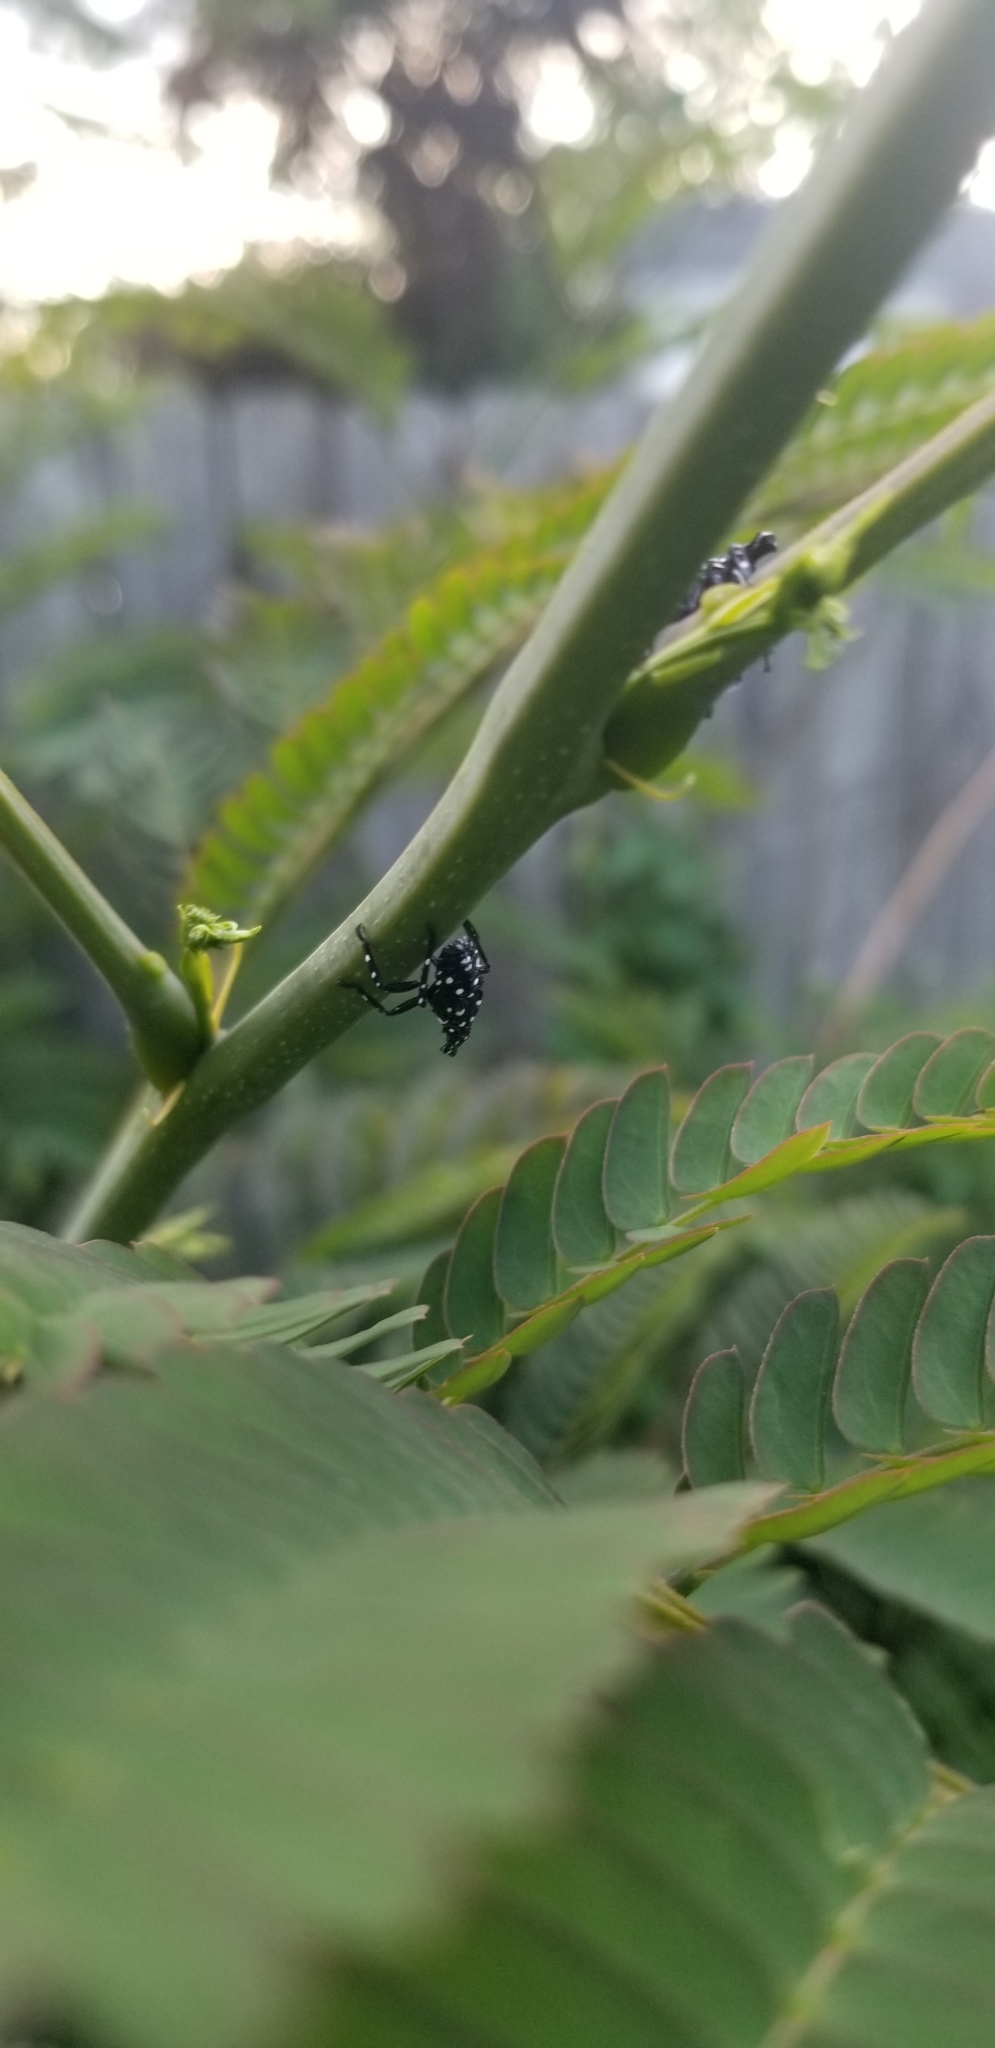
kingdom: Animalia
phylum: Arthropoda
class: Insecta
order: Hemiptera
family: Fulgoridae
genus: Lycorma
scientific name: Lycorma delicatula
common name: Spotted lanternfly
